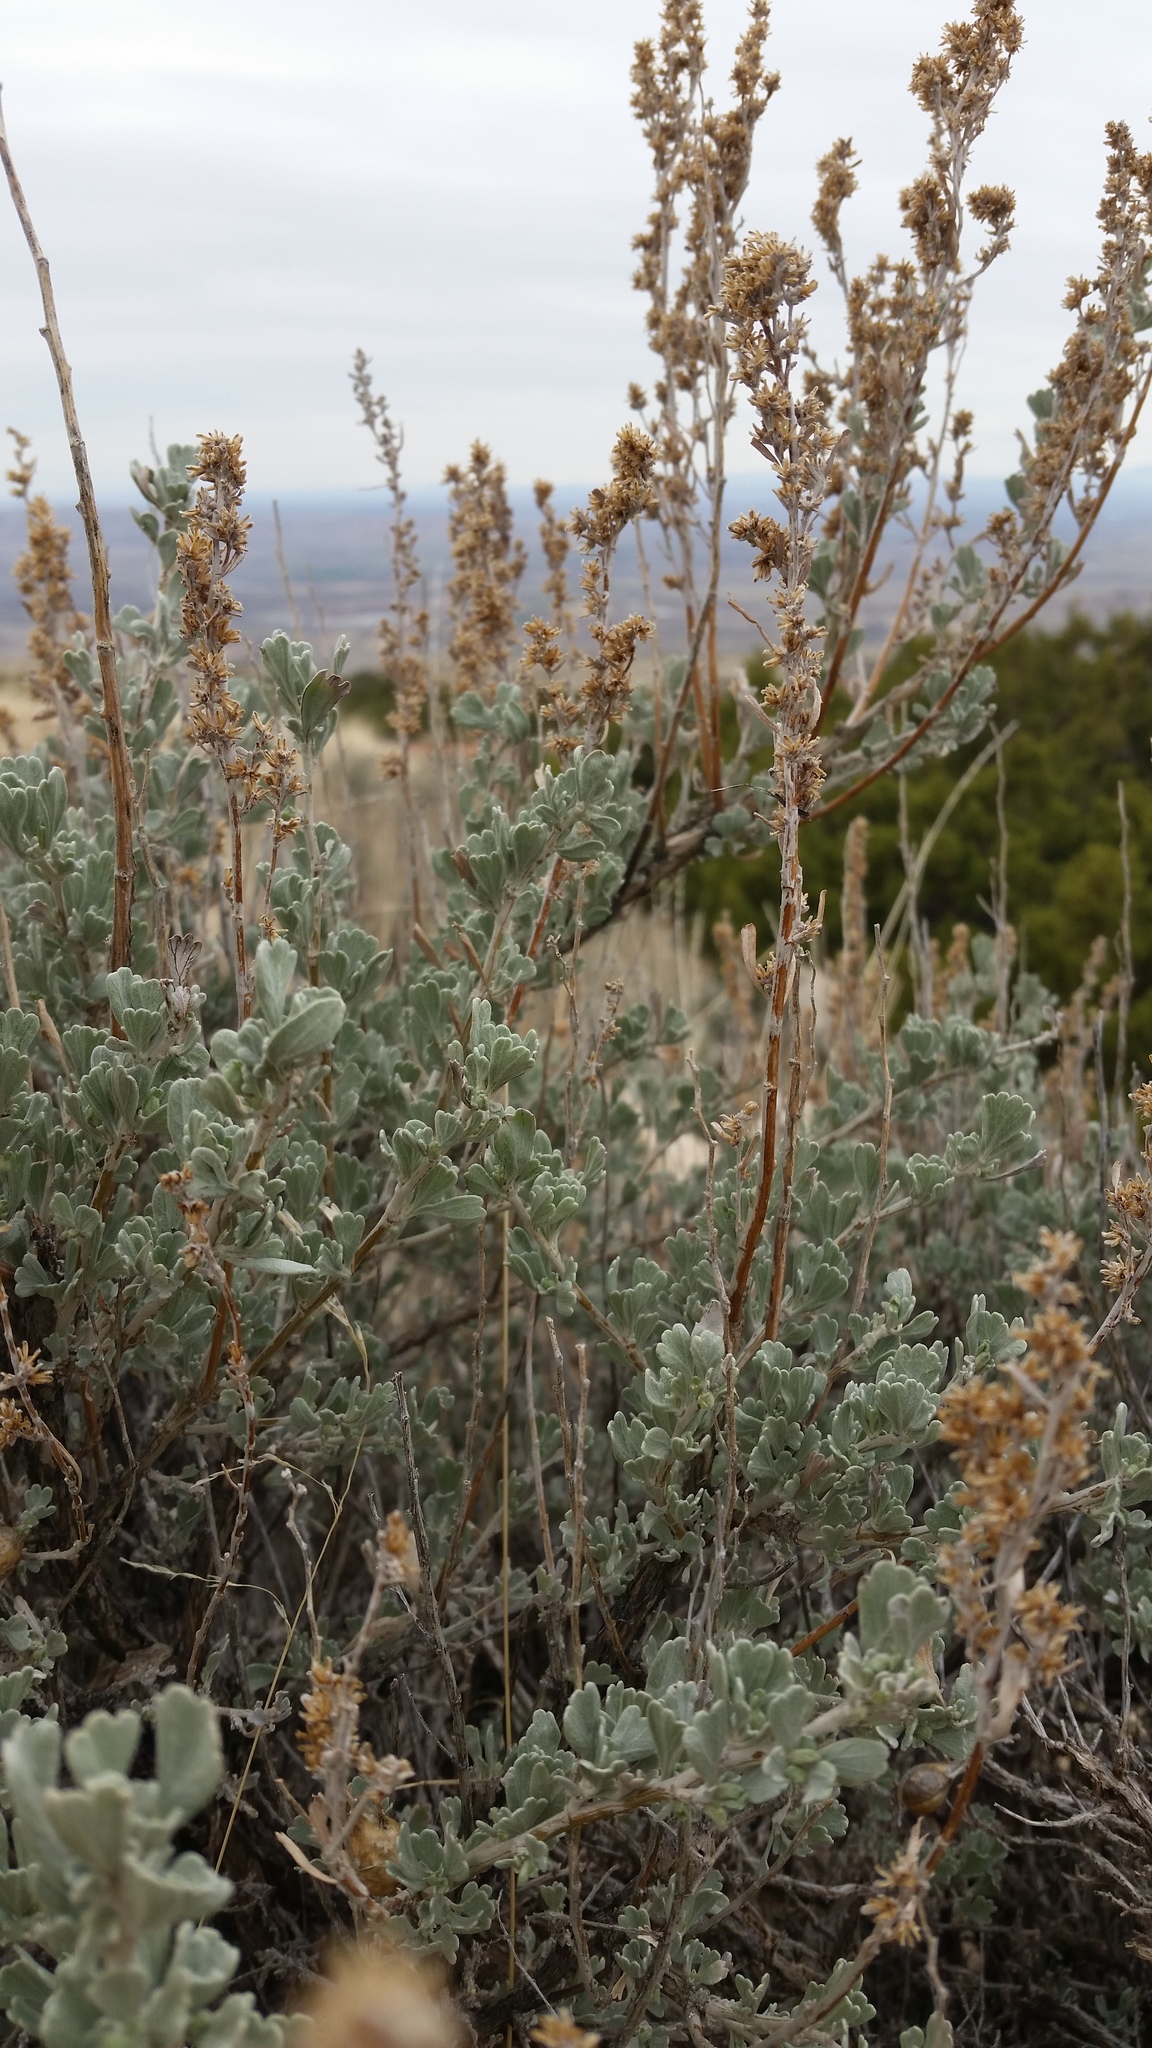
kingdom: Plantae
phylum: Tracheophyta
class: Magnoliopsida
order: Asterales
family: Asteraceae
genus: Artemisia
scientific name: Artemisia tridentata
